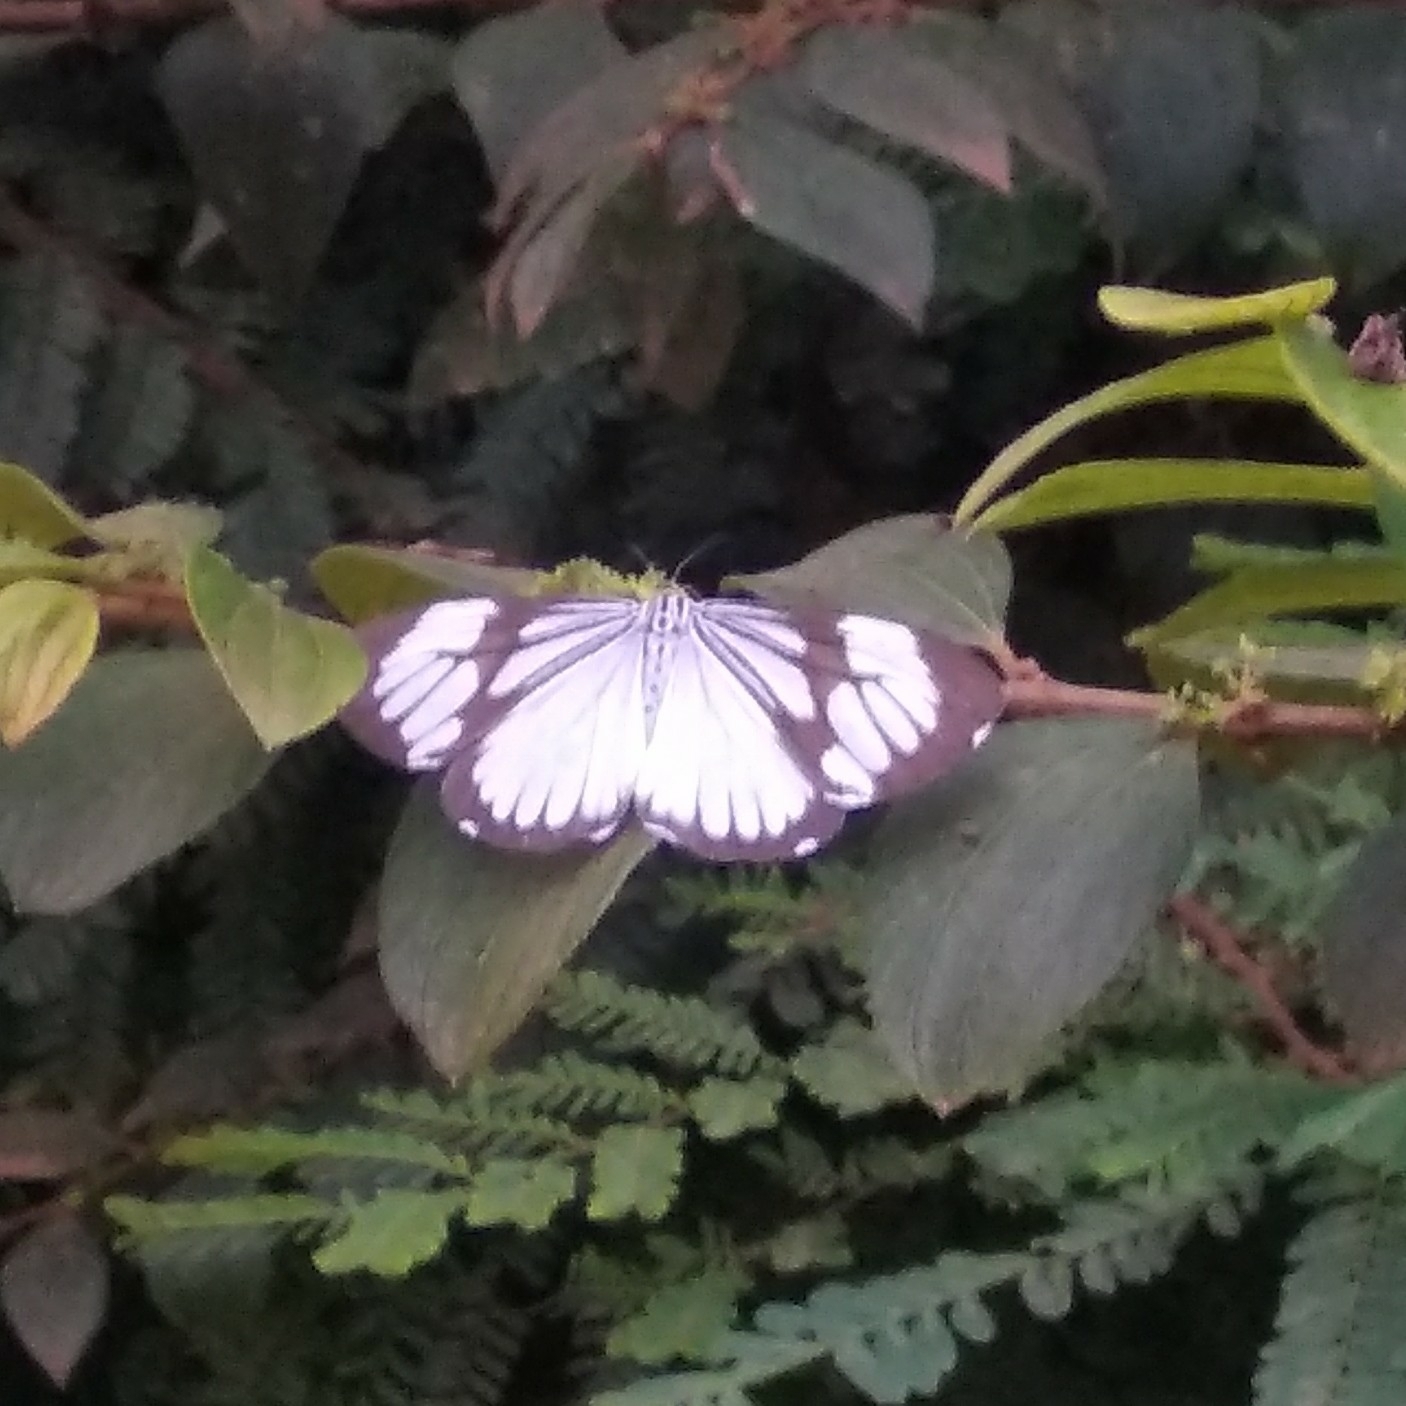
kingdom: Animalia
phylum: Arthropoda
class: Insecta
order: Lepidoptera
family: Erebidae
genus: Nyctemera
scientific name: Nyctemera coleta
